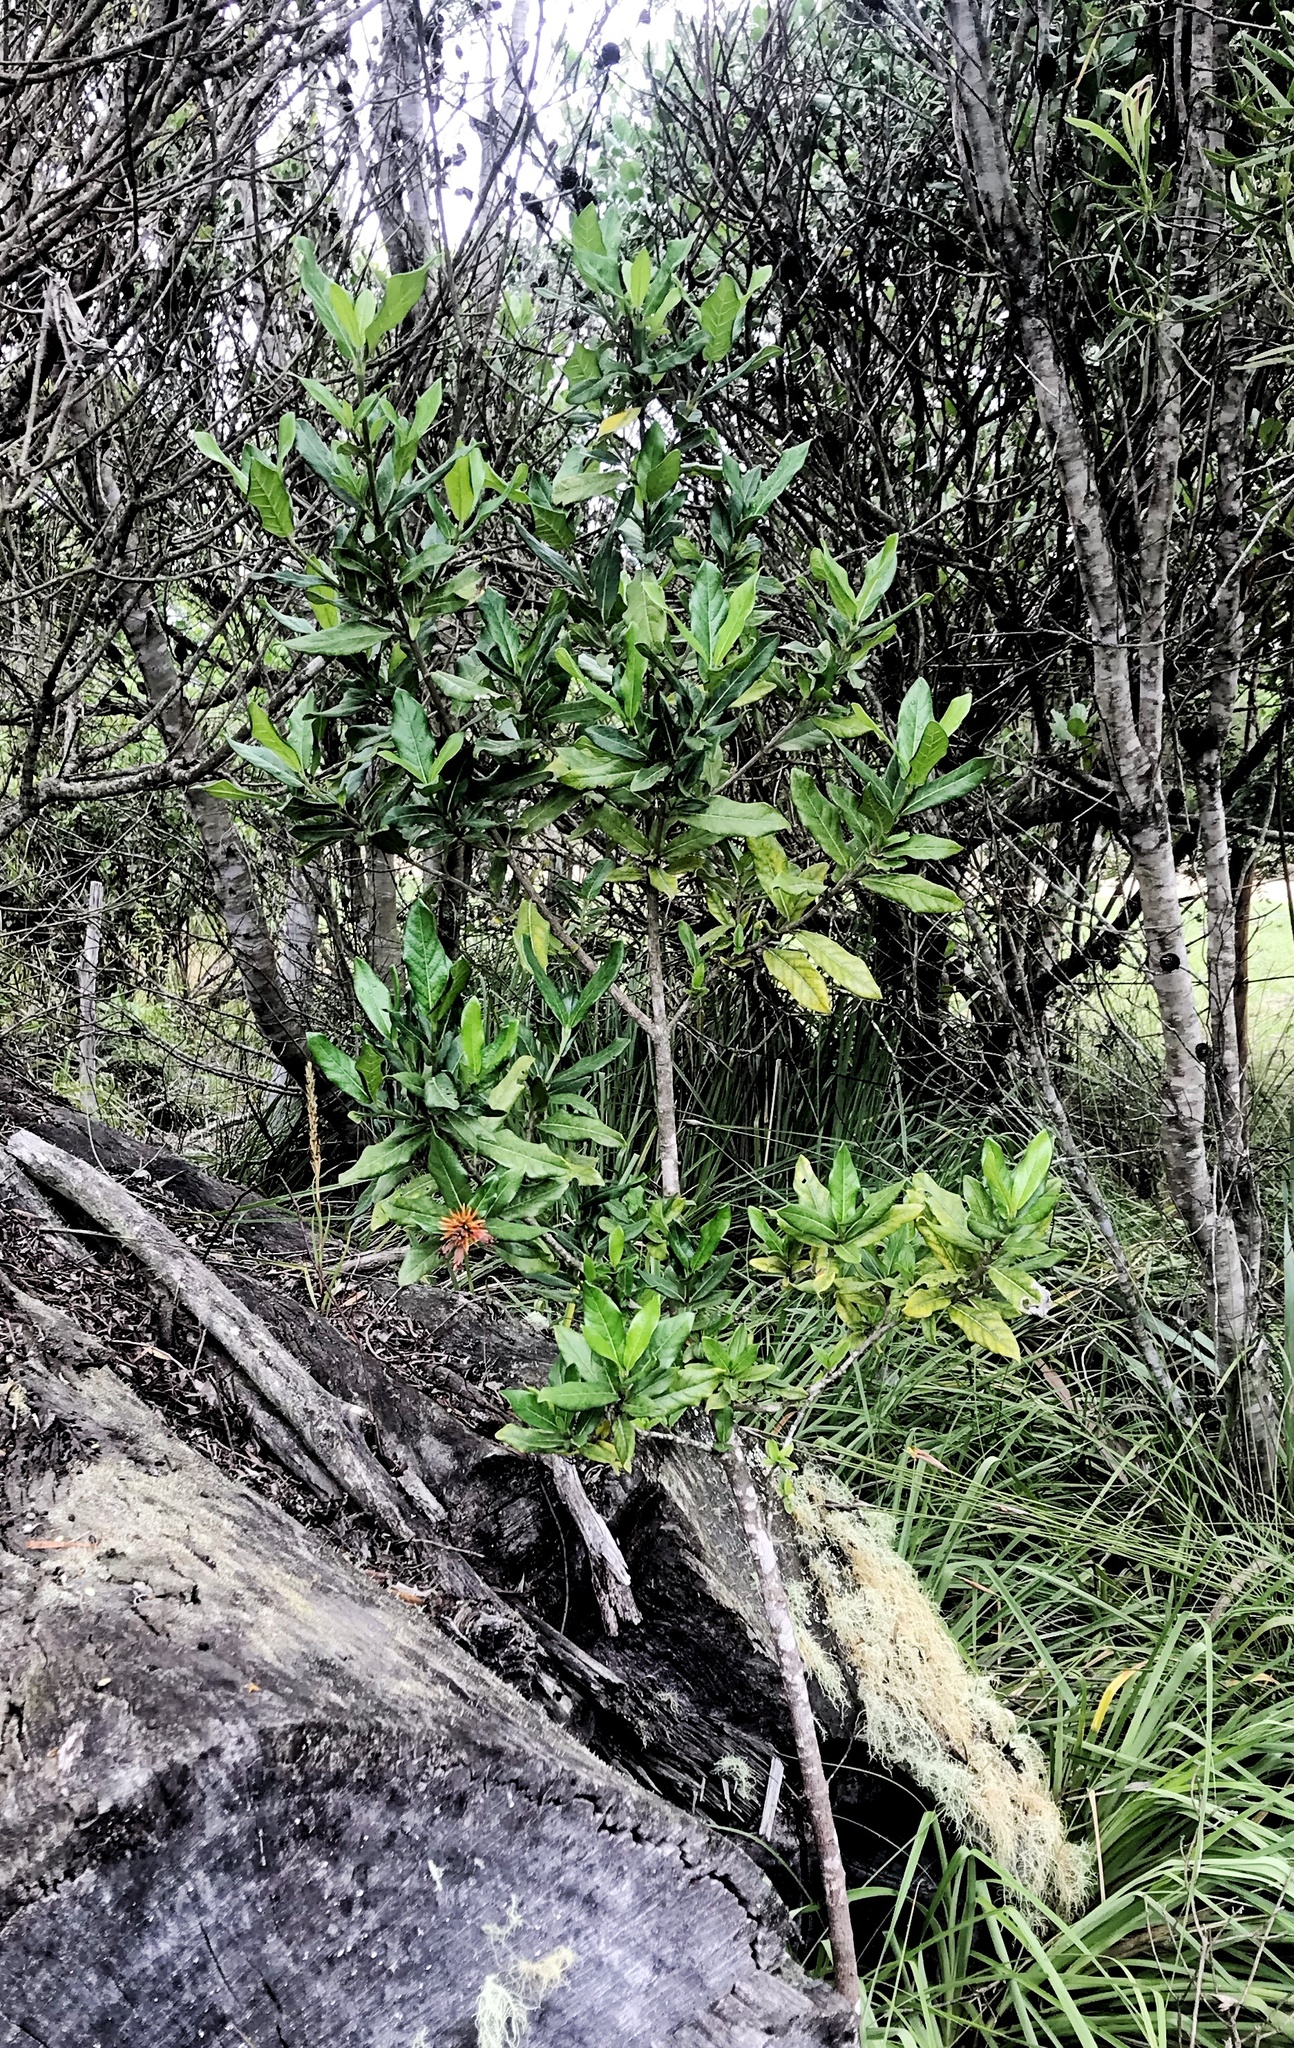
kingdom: Plantae
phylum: Tracheophyta
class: Magnoliopsida
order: Gentianales
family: Rubiaceae
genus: Burchellia
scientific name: Burchellia bubalina
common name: Wild pomegranate
